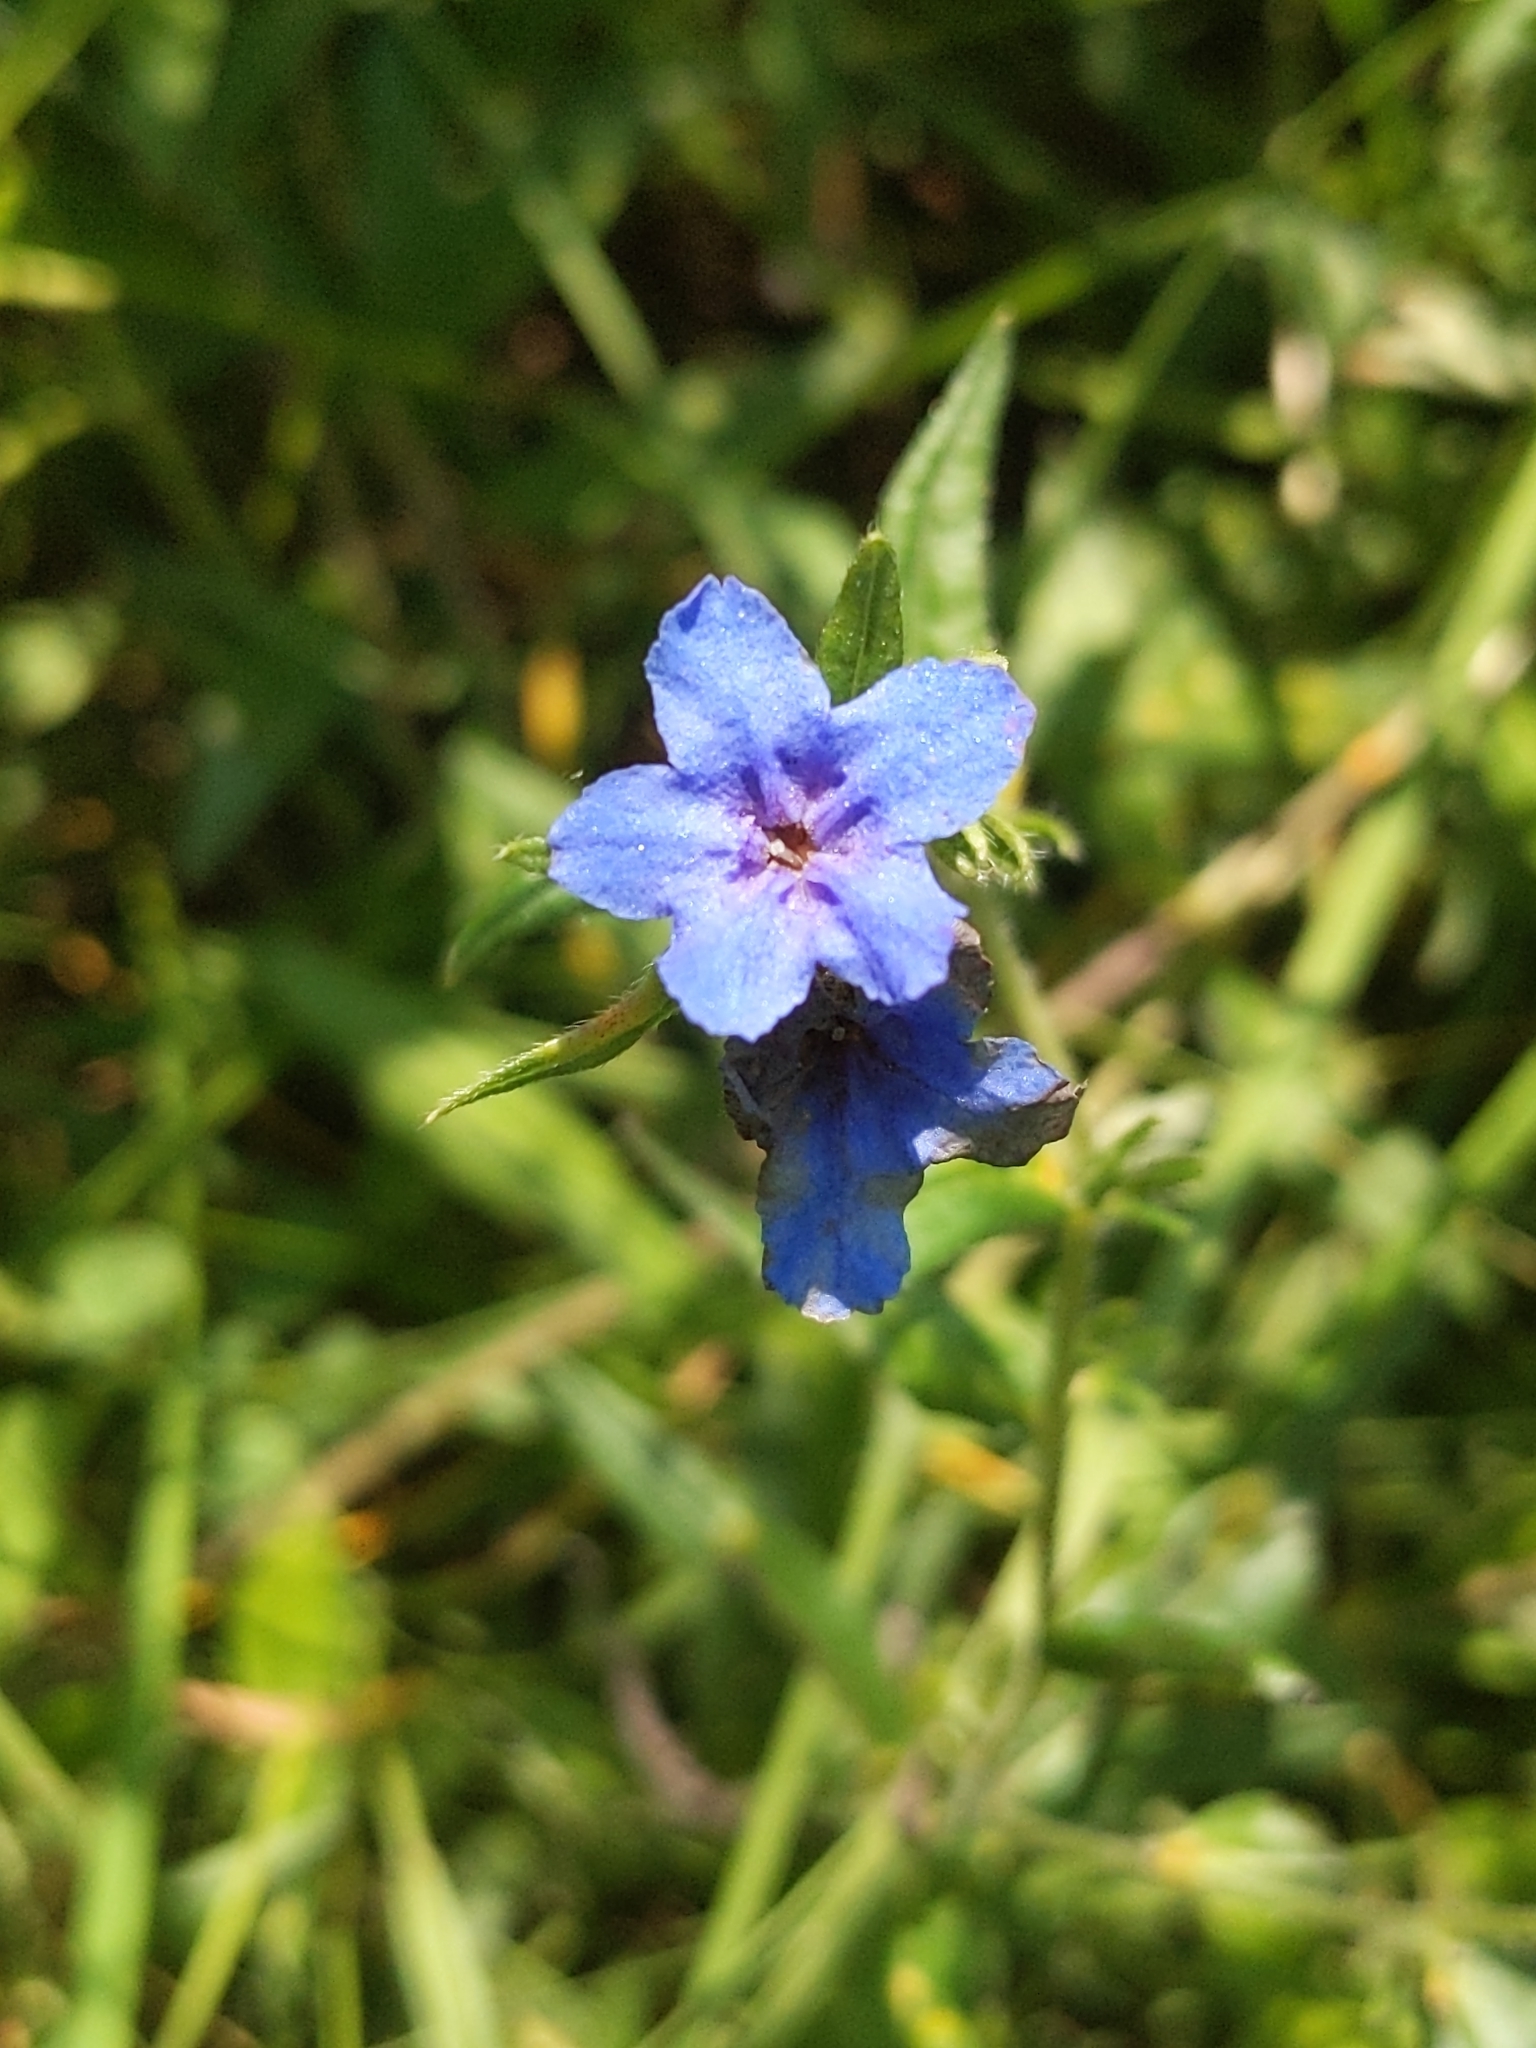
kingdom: Plantae
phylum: Tracheophyta
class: Magnoliopsida
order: Boraginales
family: Boraginaceae
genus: Aegonychon
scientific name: Aegonychon purpurocaeruleum
